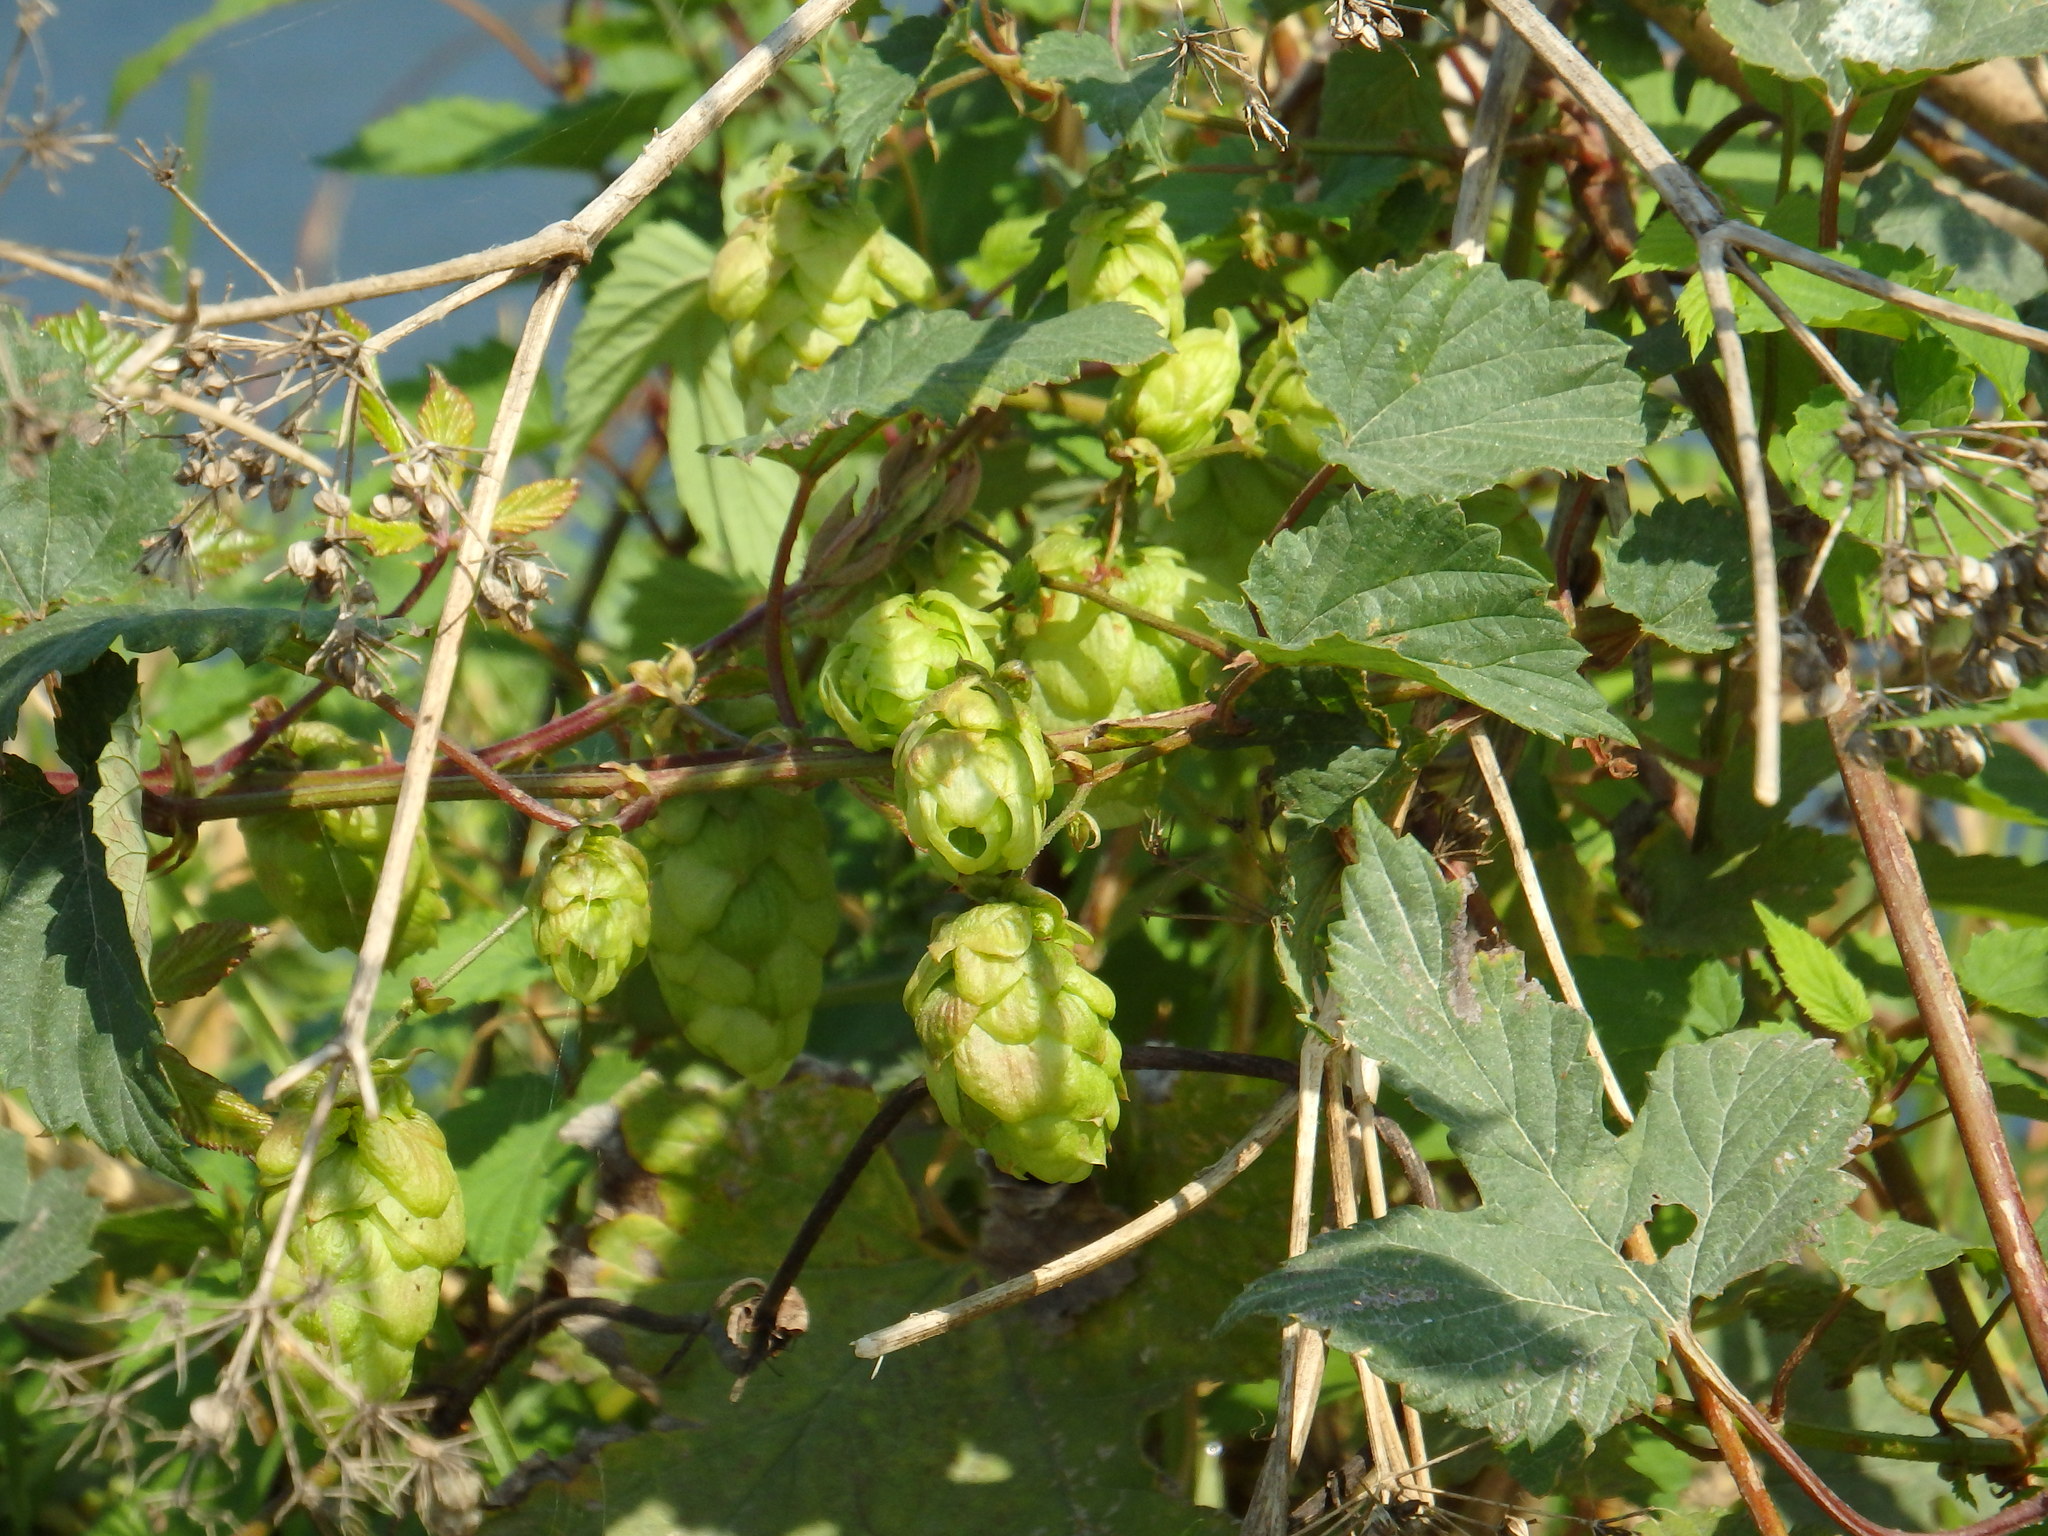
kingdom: Plantae
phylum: Tracheophyta
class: Magnoliopsida
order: Rosales
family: Cannabaceae
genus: Humulus
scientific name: Humulus lupulus
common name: Hop
